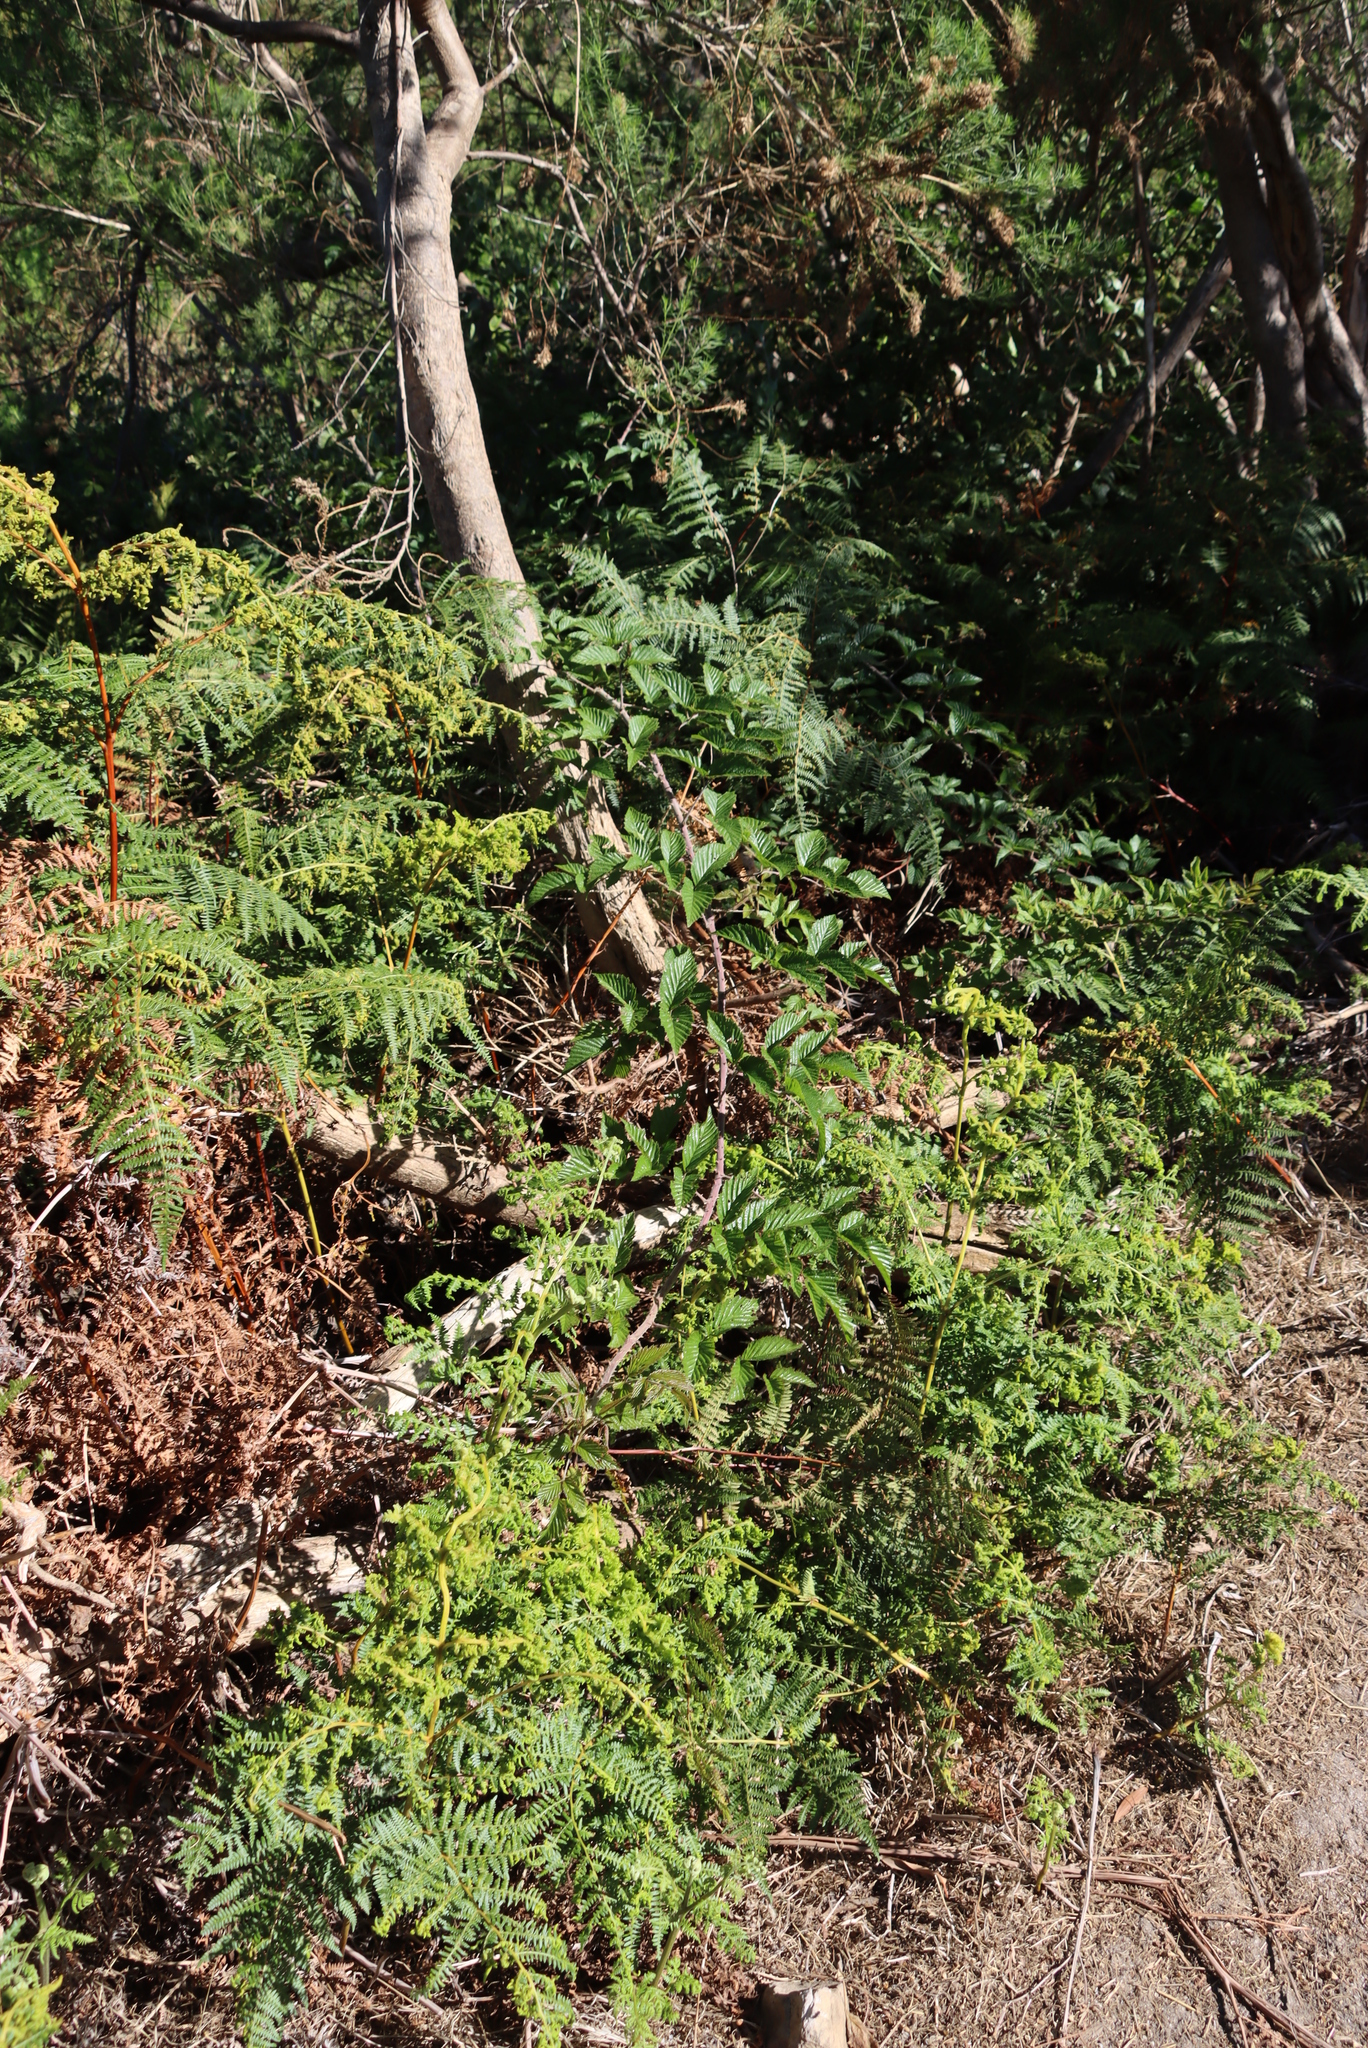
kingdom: Plantae
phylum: Tracheophyta
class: Magnoliopsida
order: Rosales
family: Rosaceae
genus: Rubus
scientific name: Rubus pinnatus
